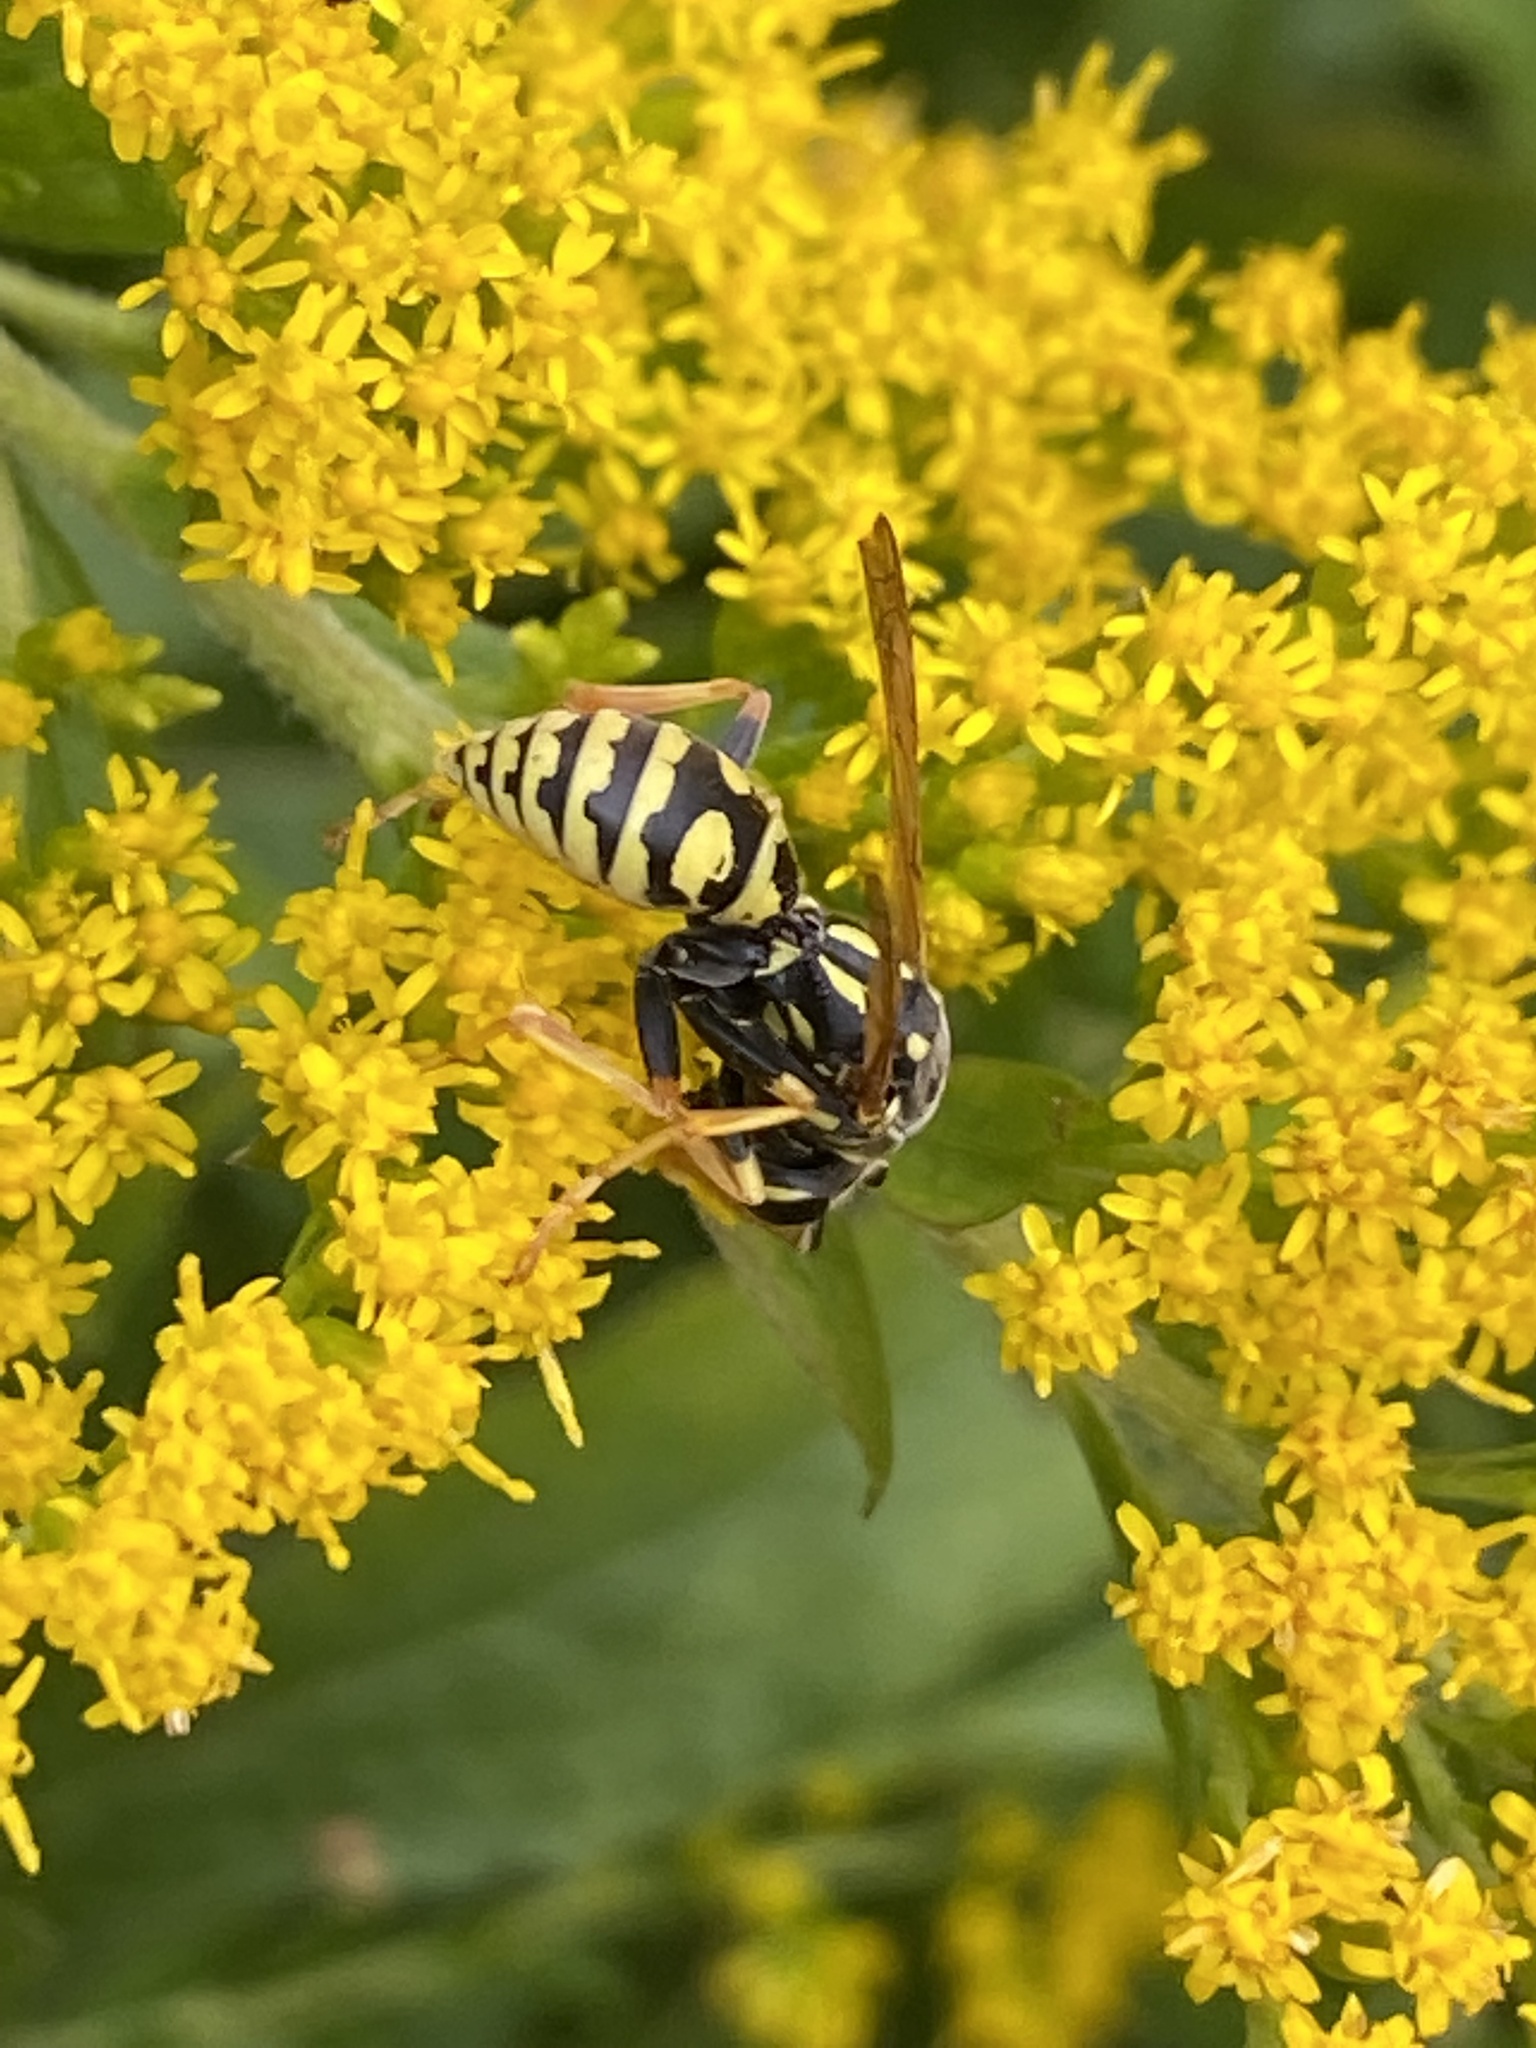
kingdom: Animalia
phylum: Arthropoda
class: Insecta
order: Hymenoptera
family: Eumenidae
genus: Polistes
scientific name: Polistes dominula
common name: Paper wasp
